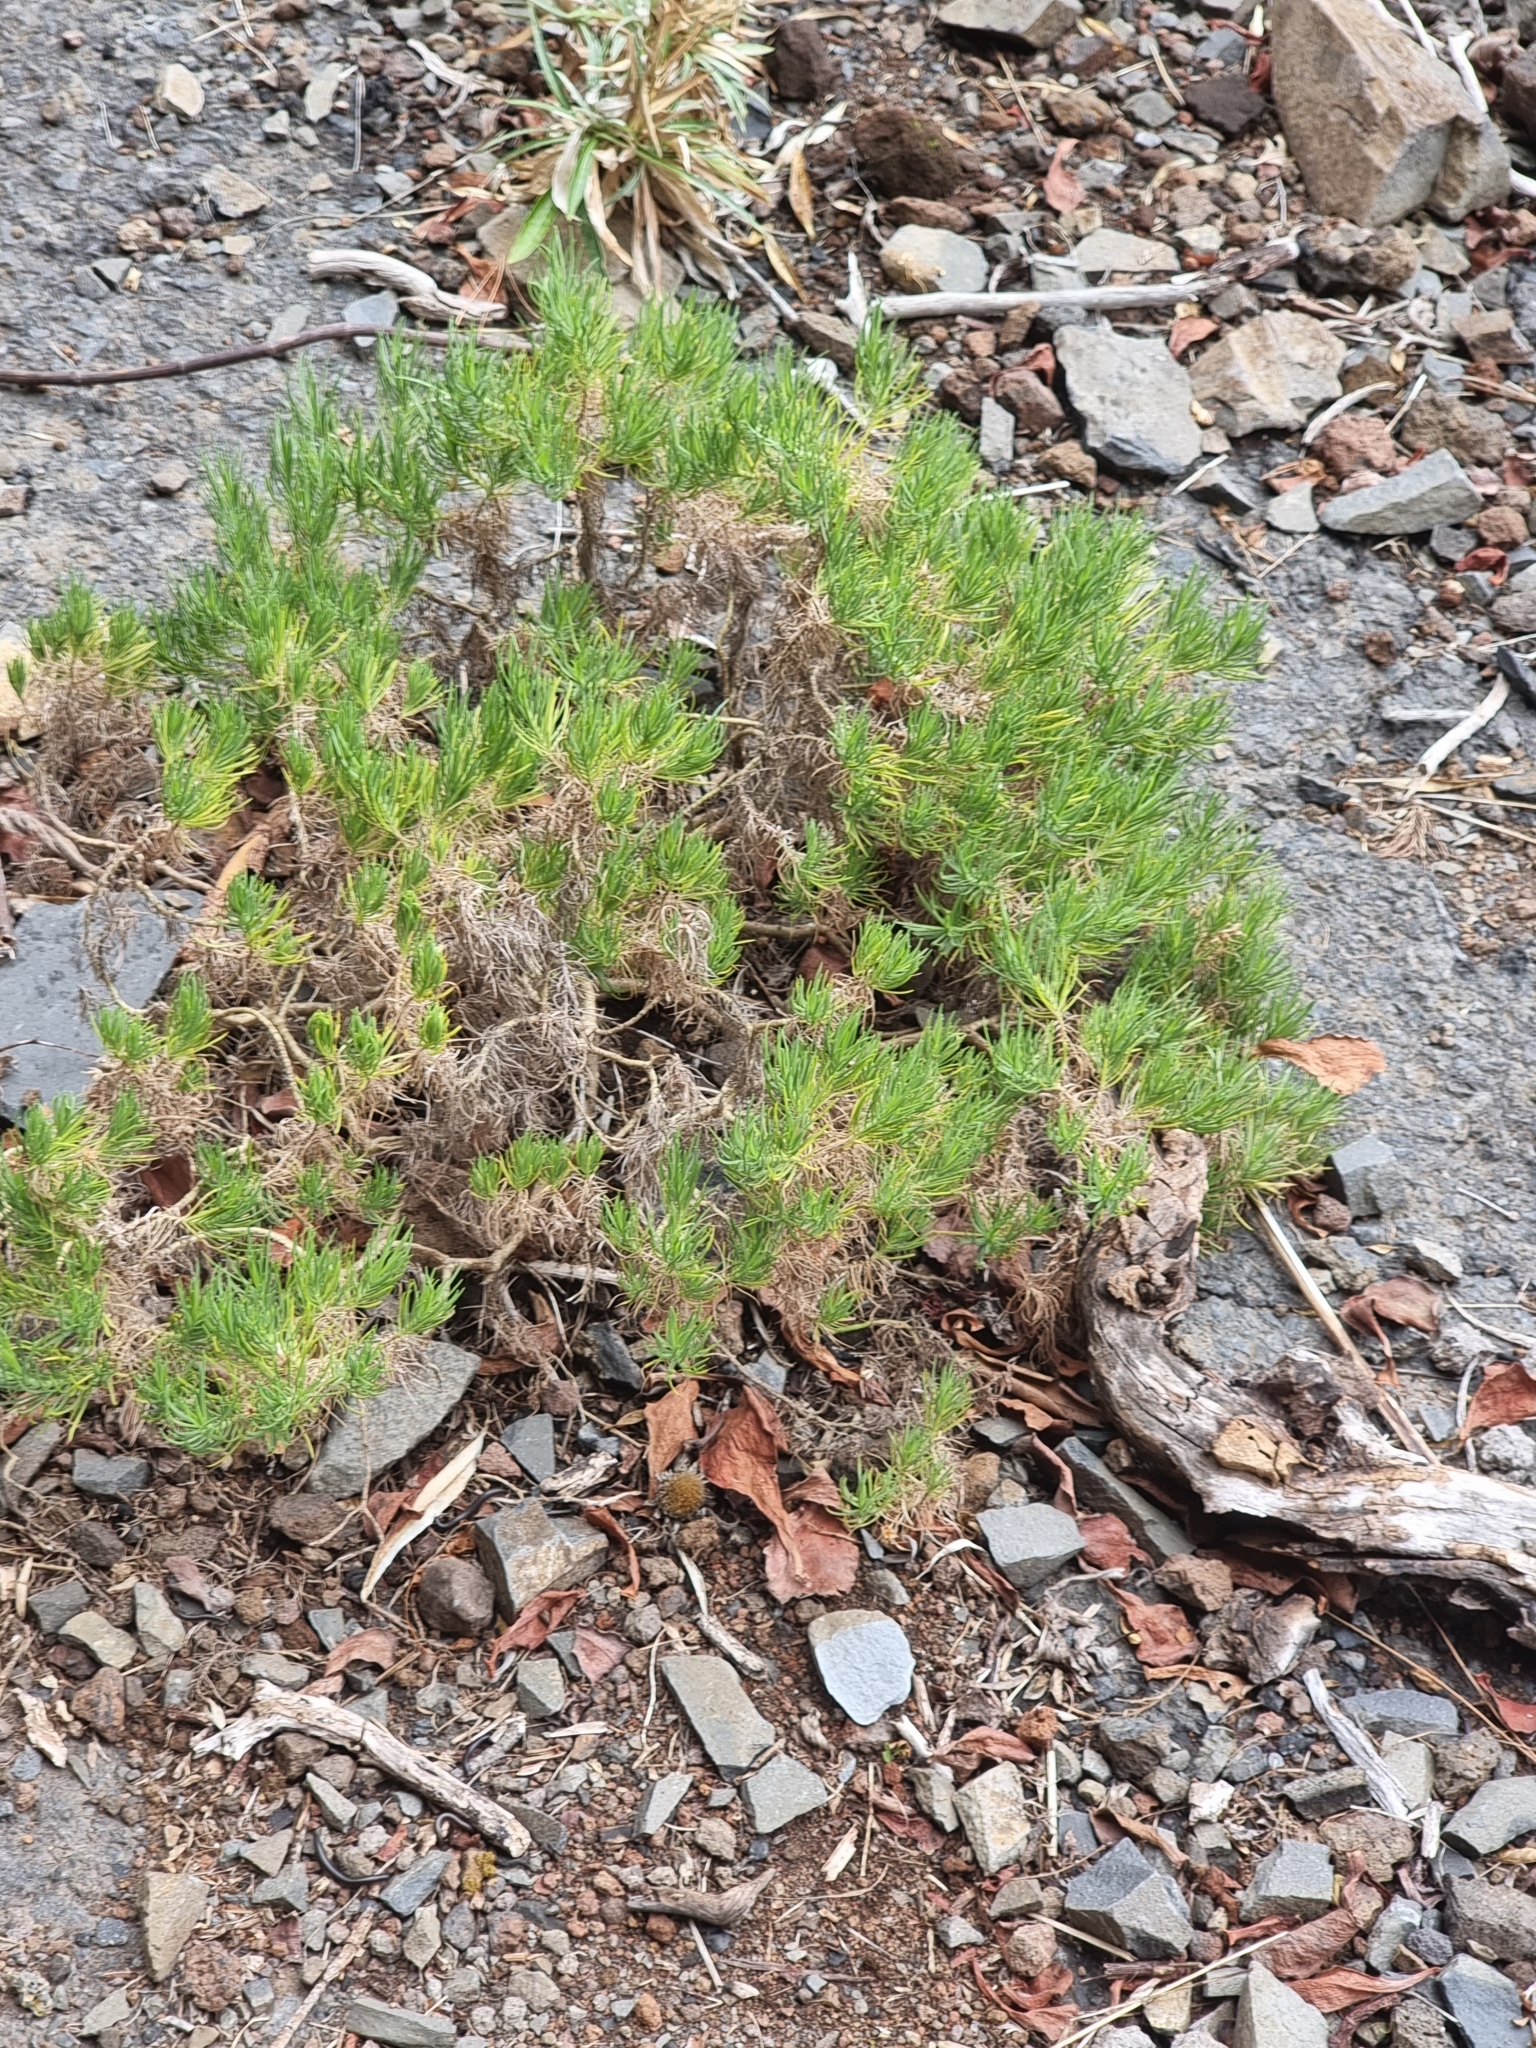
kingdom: Plantae
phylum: Tracheophyta
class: Magnoliopsida
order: Lamiales
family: Plantaginaceae
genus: Plantago
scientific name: Plantago arborescens
